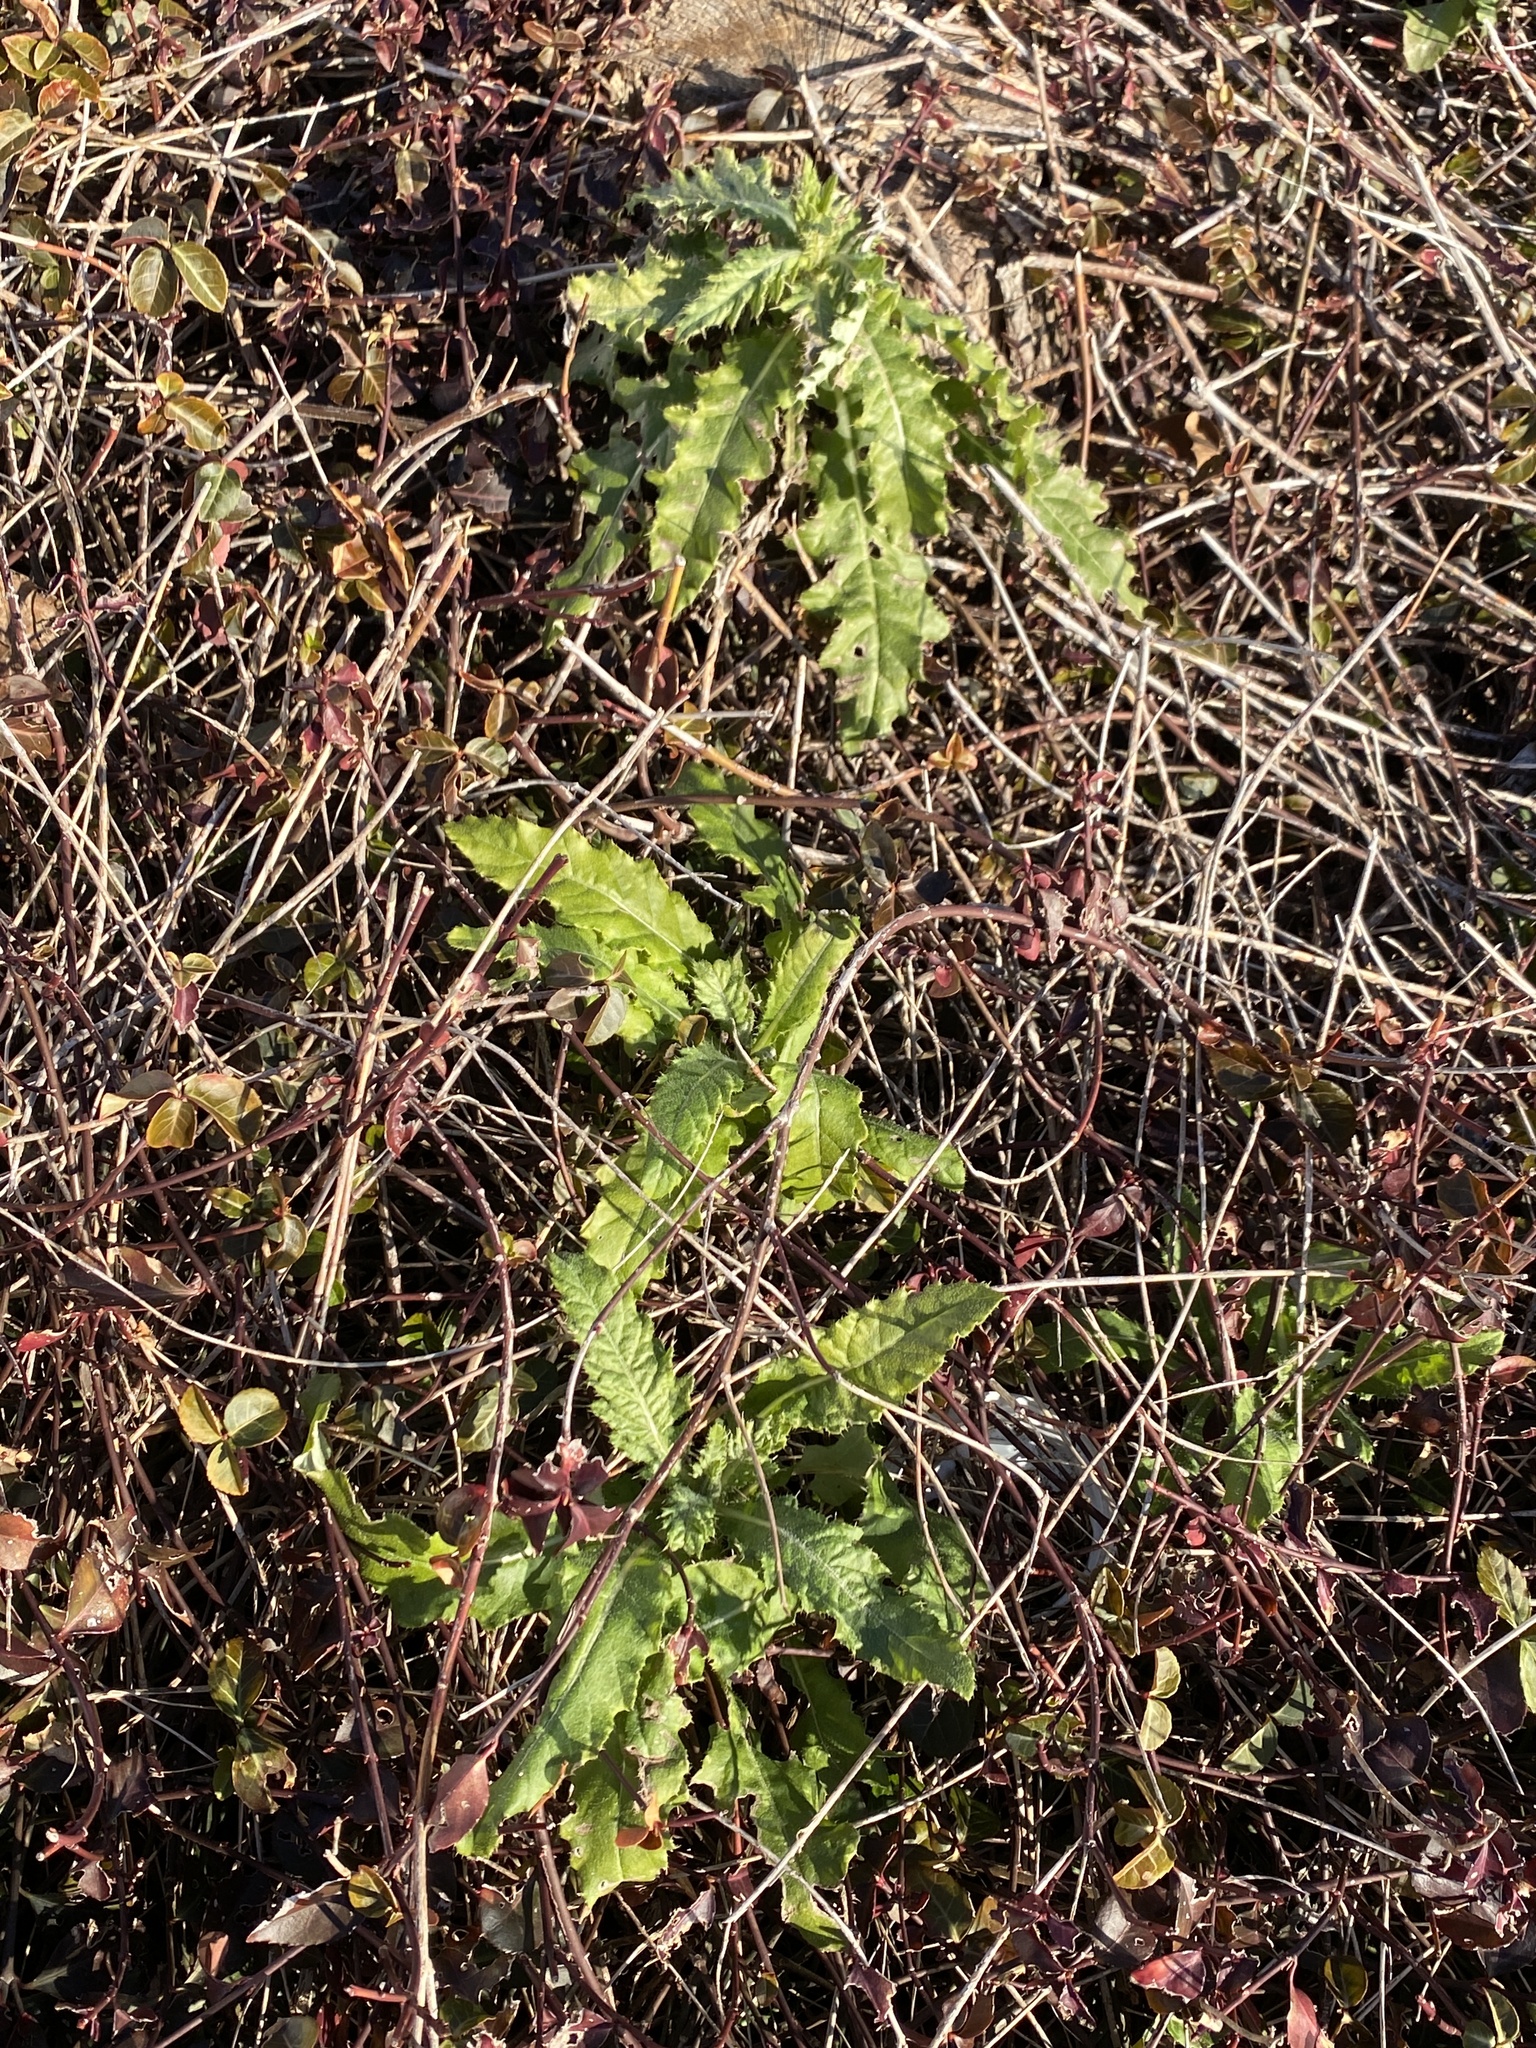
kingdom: Plantae
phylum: Tracheophyta
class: Magnoliopsida
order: Asterales
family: Asteraceae
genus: Cirsium
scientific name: Cirsium arvense
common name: Creeping thistle
